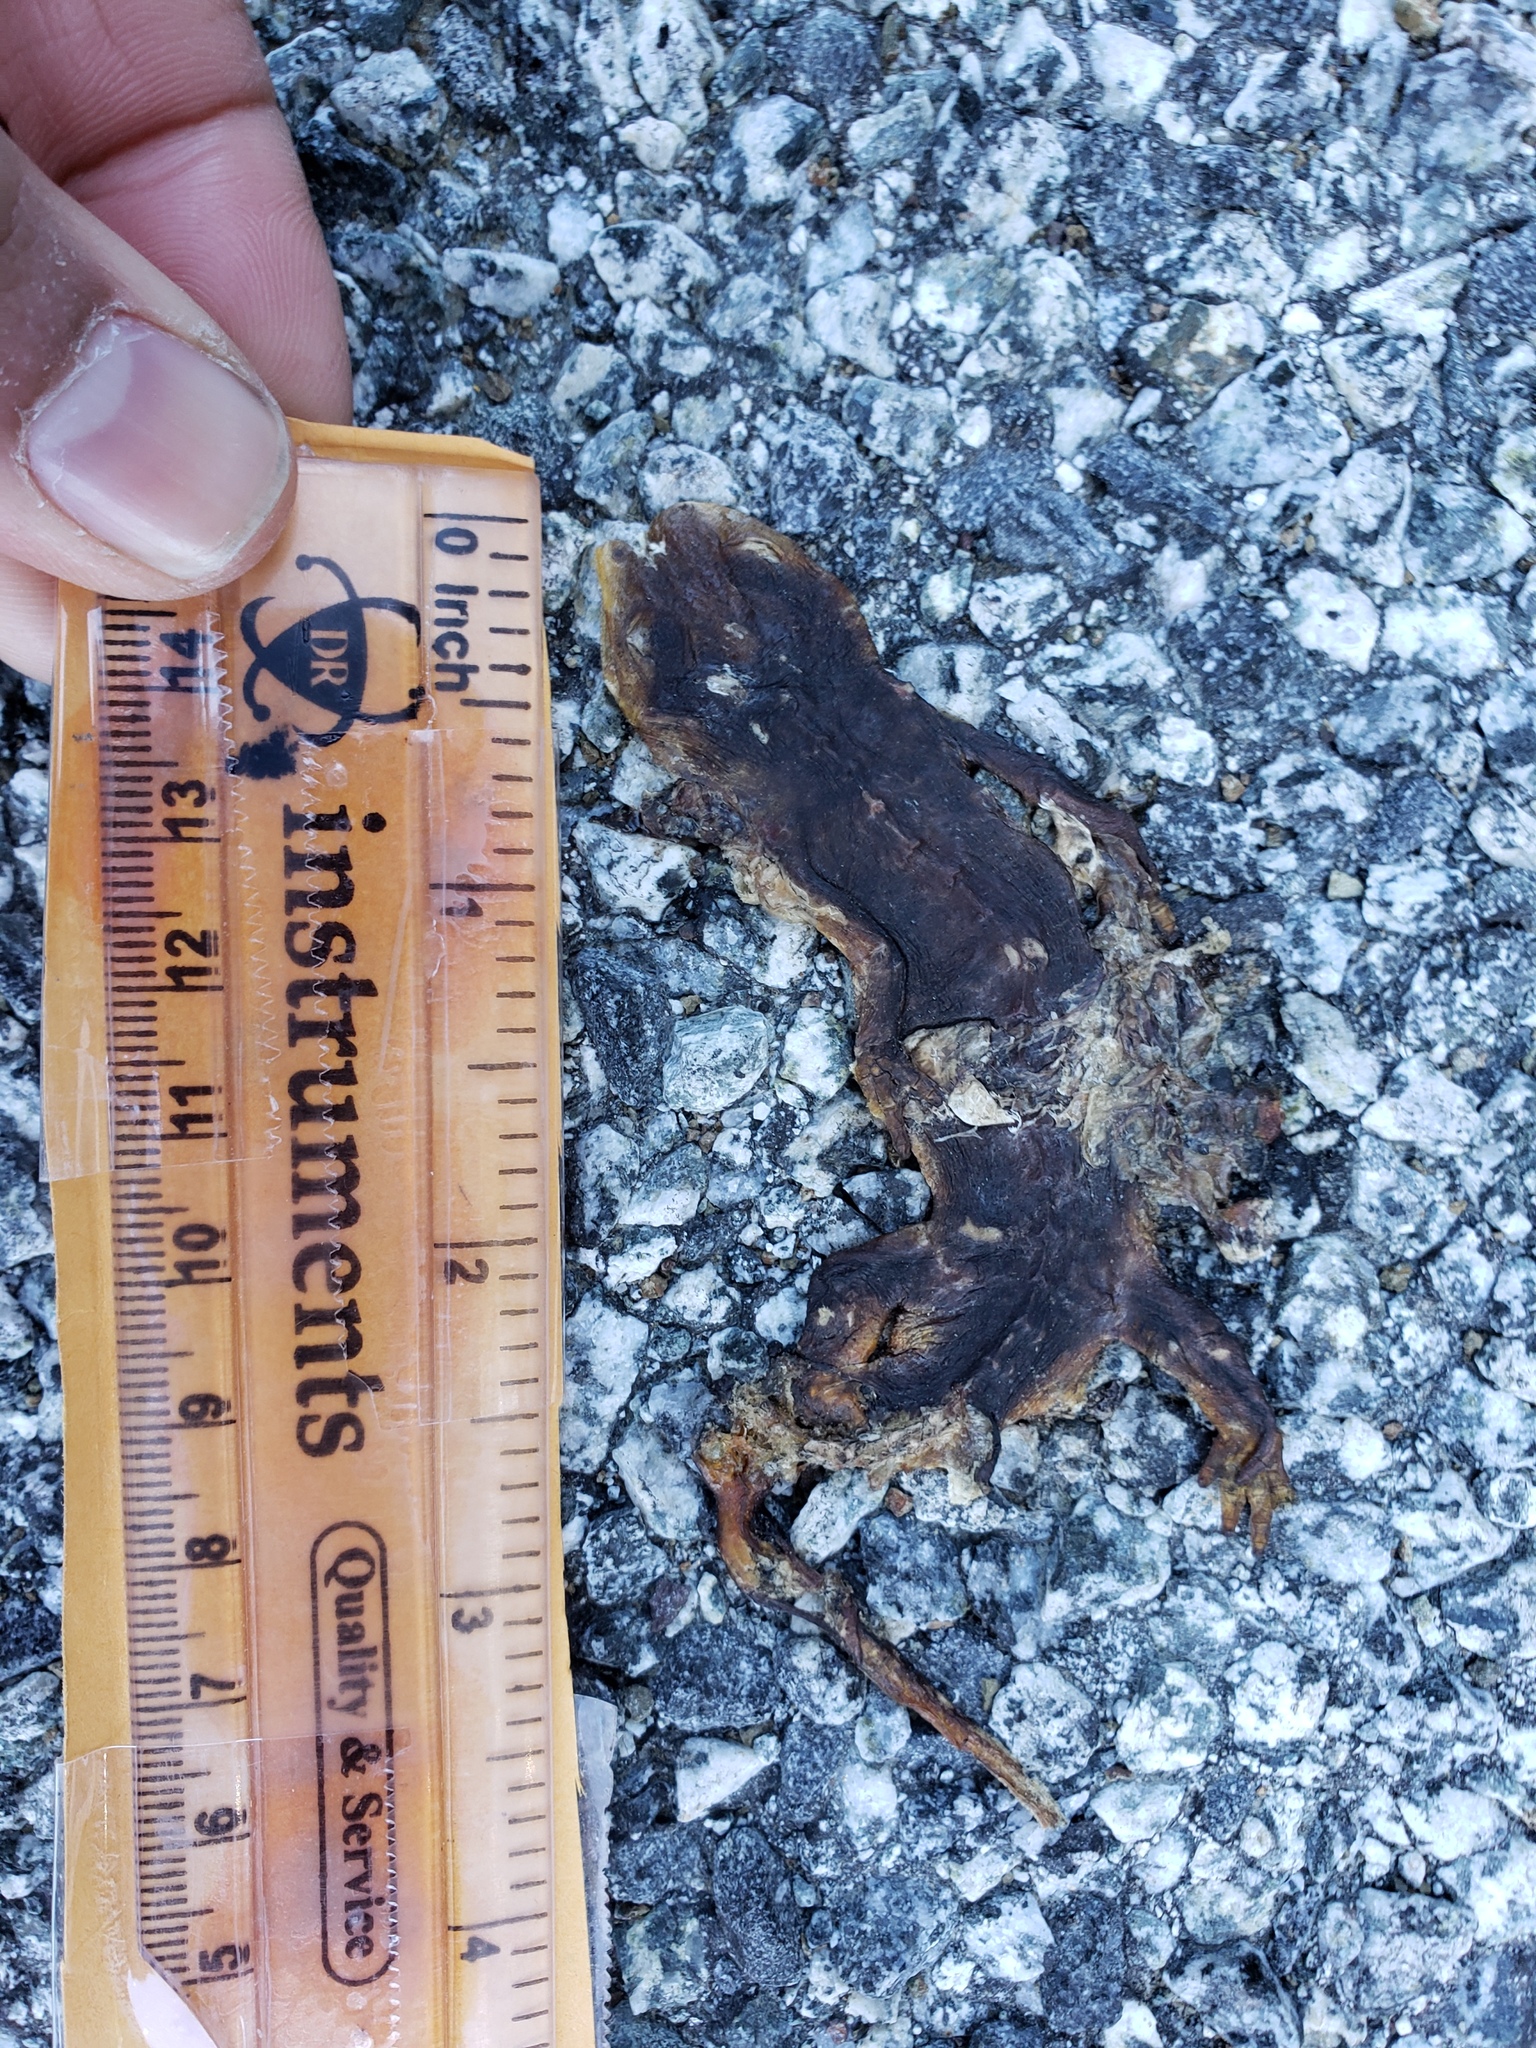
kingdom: Animalia
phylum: Chordata
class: Amphibia
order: Caudata
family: Salamandridae
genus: Taricha
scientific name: Taricha
